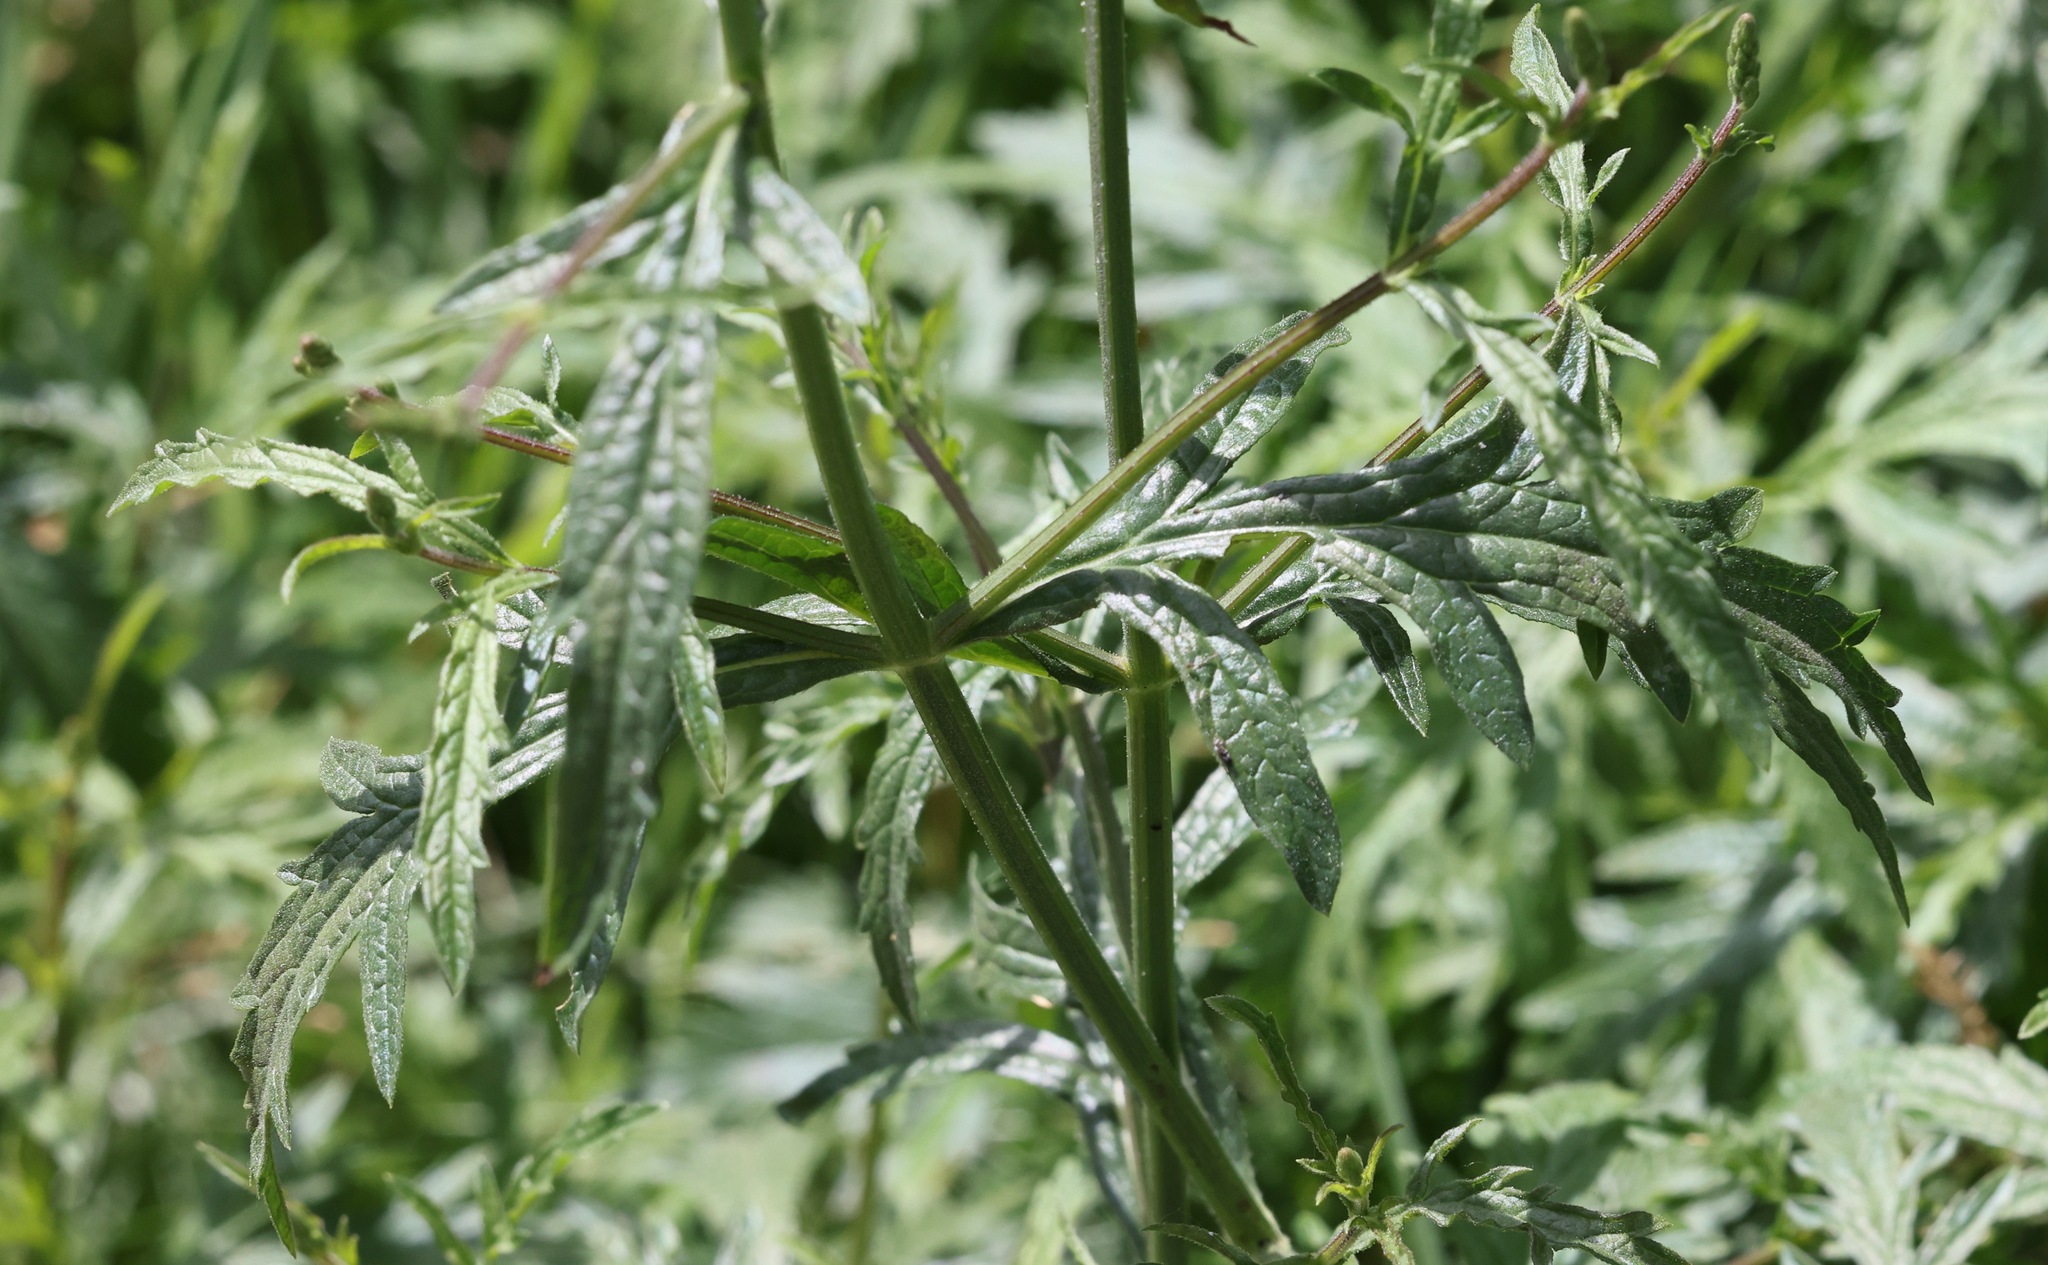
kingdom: Plantae
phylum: Tracheophyta
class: Magnoliopsida
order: Lamiales
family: Verbenaceae
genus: Verbena
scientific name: Verbena officinalis
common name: Vervain
